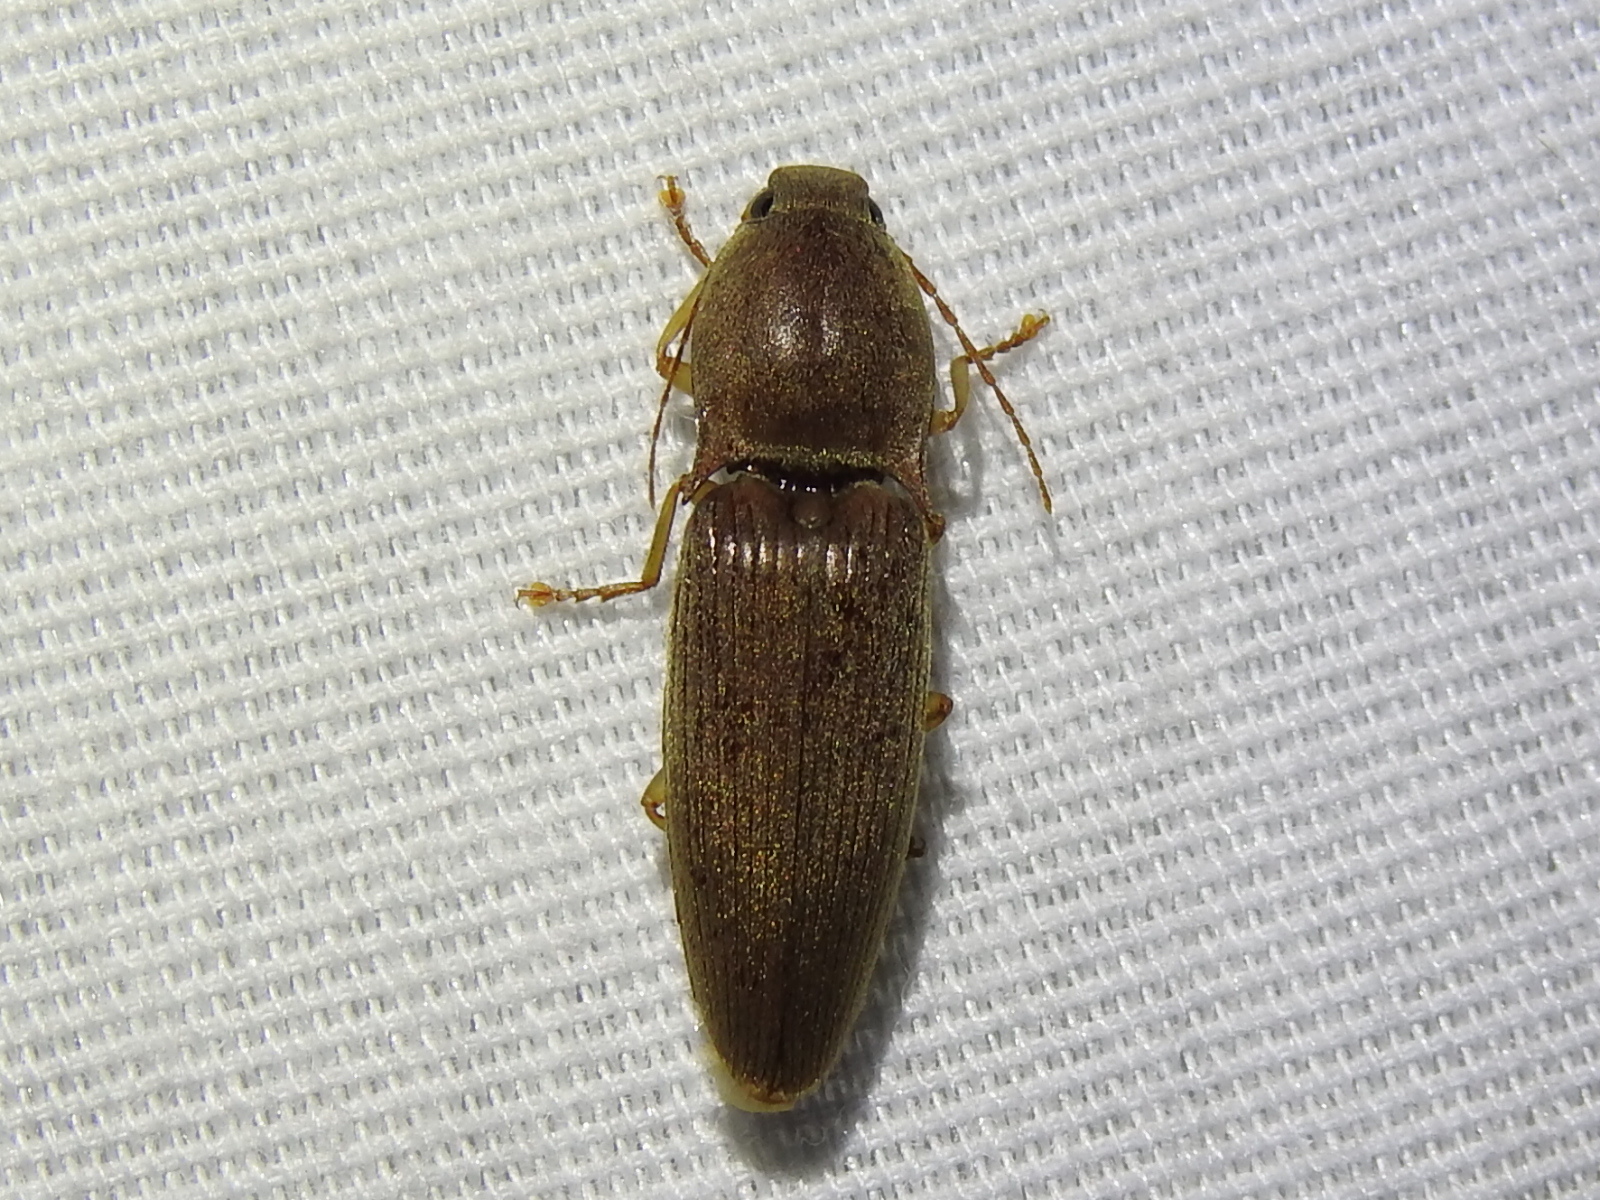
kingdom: Animalia
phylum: Arthropoda
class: Insecta
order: Coleoptera
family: Elateridae
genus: Monocrepidius
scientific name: Monocrepidius lividus
